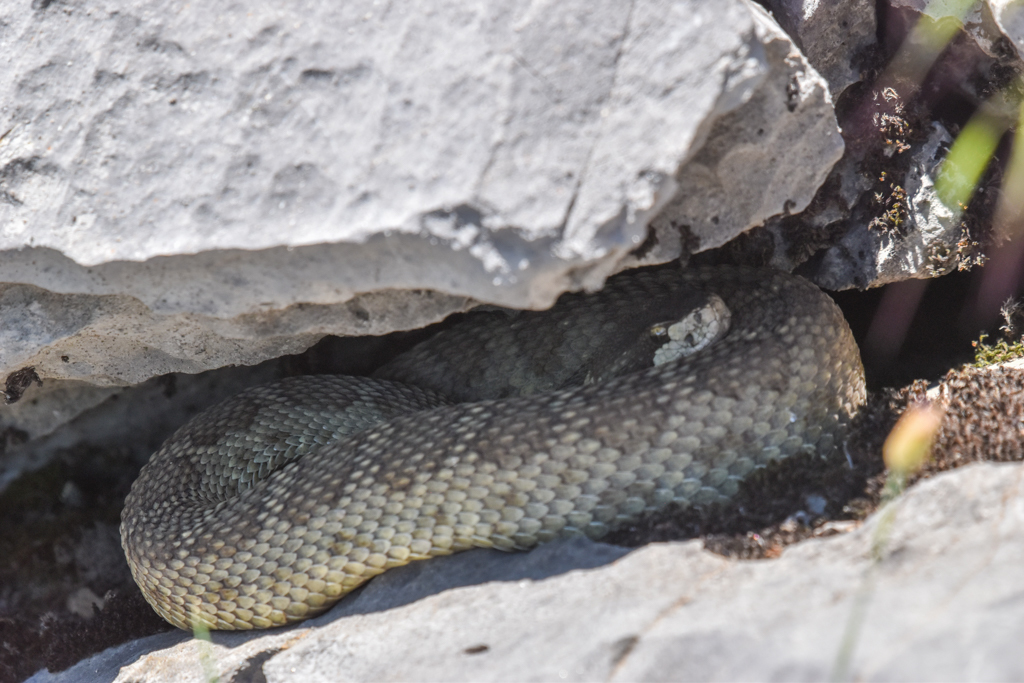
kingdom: Animalia
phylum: Chordata
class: Squamata
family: Viperidae
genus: Crotalus
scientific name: Crotalus oreganus
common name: Abyssus
